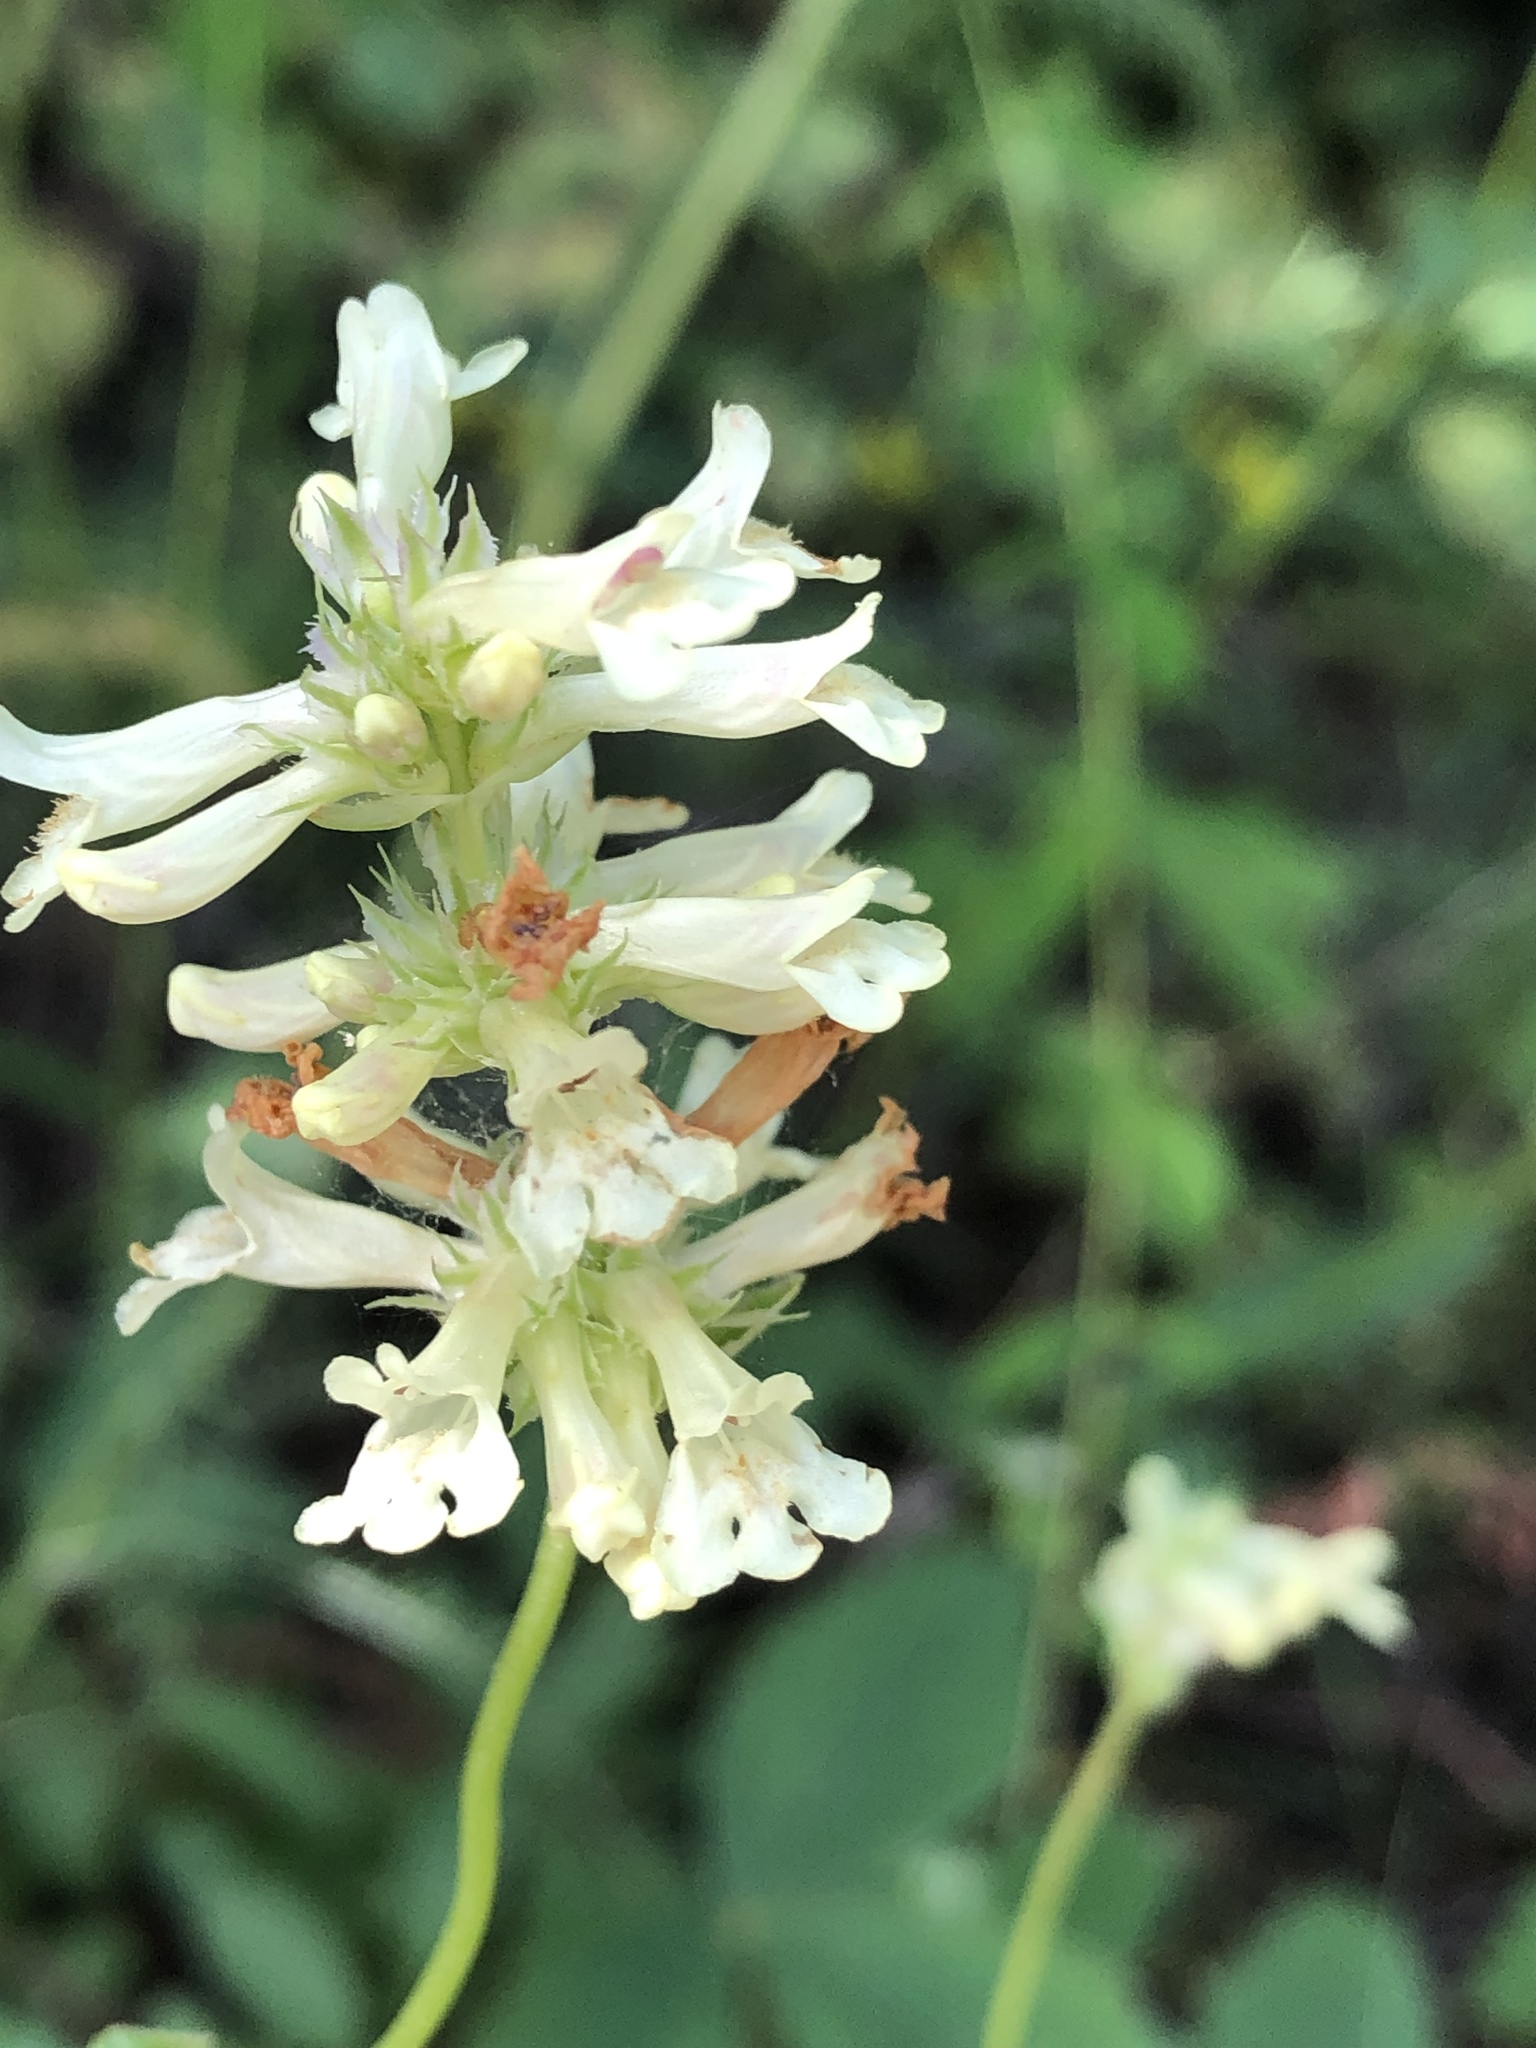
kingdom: Plantae
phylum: Tracheophyta
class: Magnoliopsida
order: Lamiales
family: Plantaginaceae
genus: Penstemon
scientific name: Penstemon confertus
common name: Lesser yellow beardtongue
